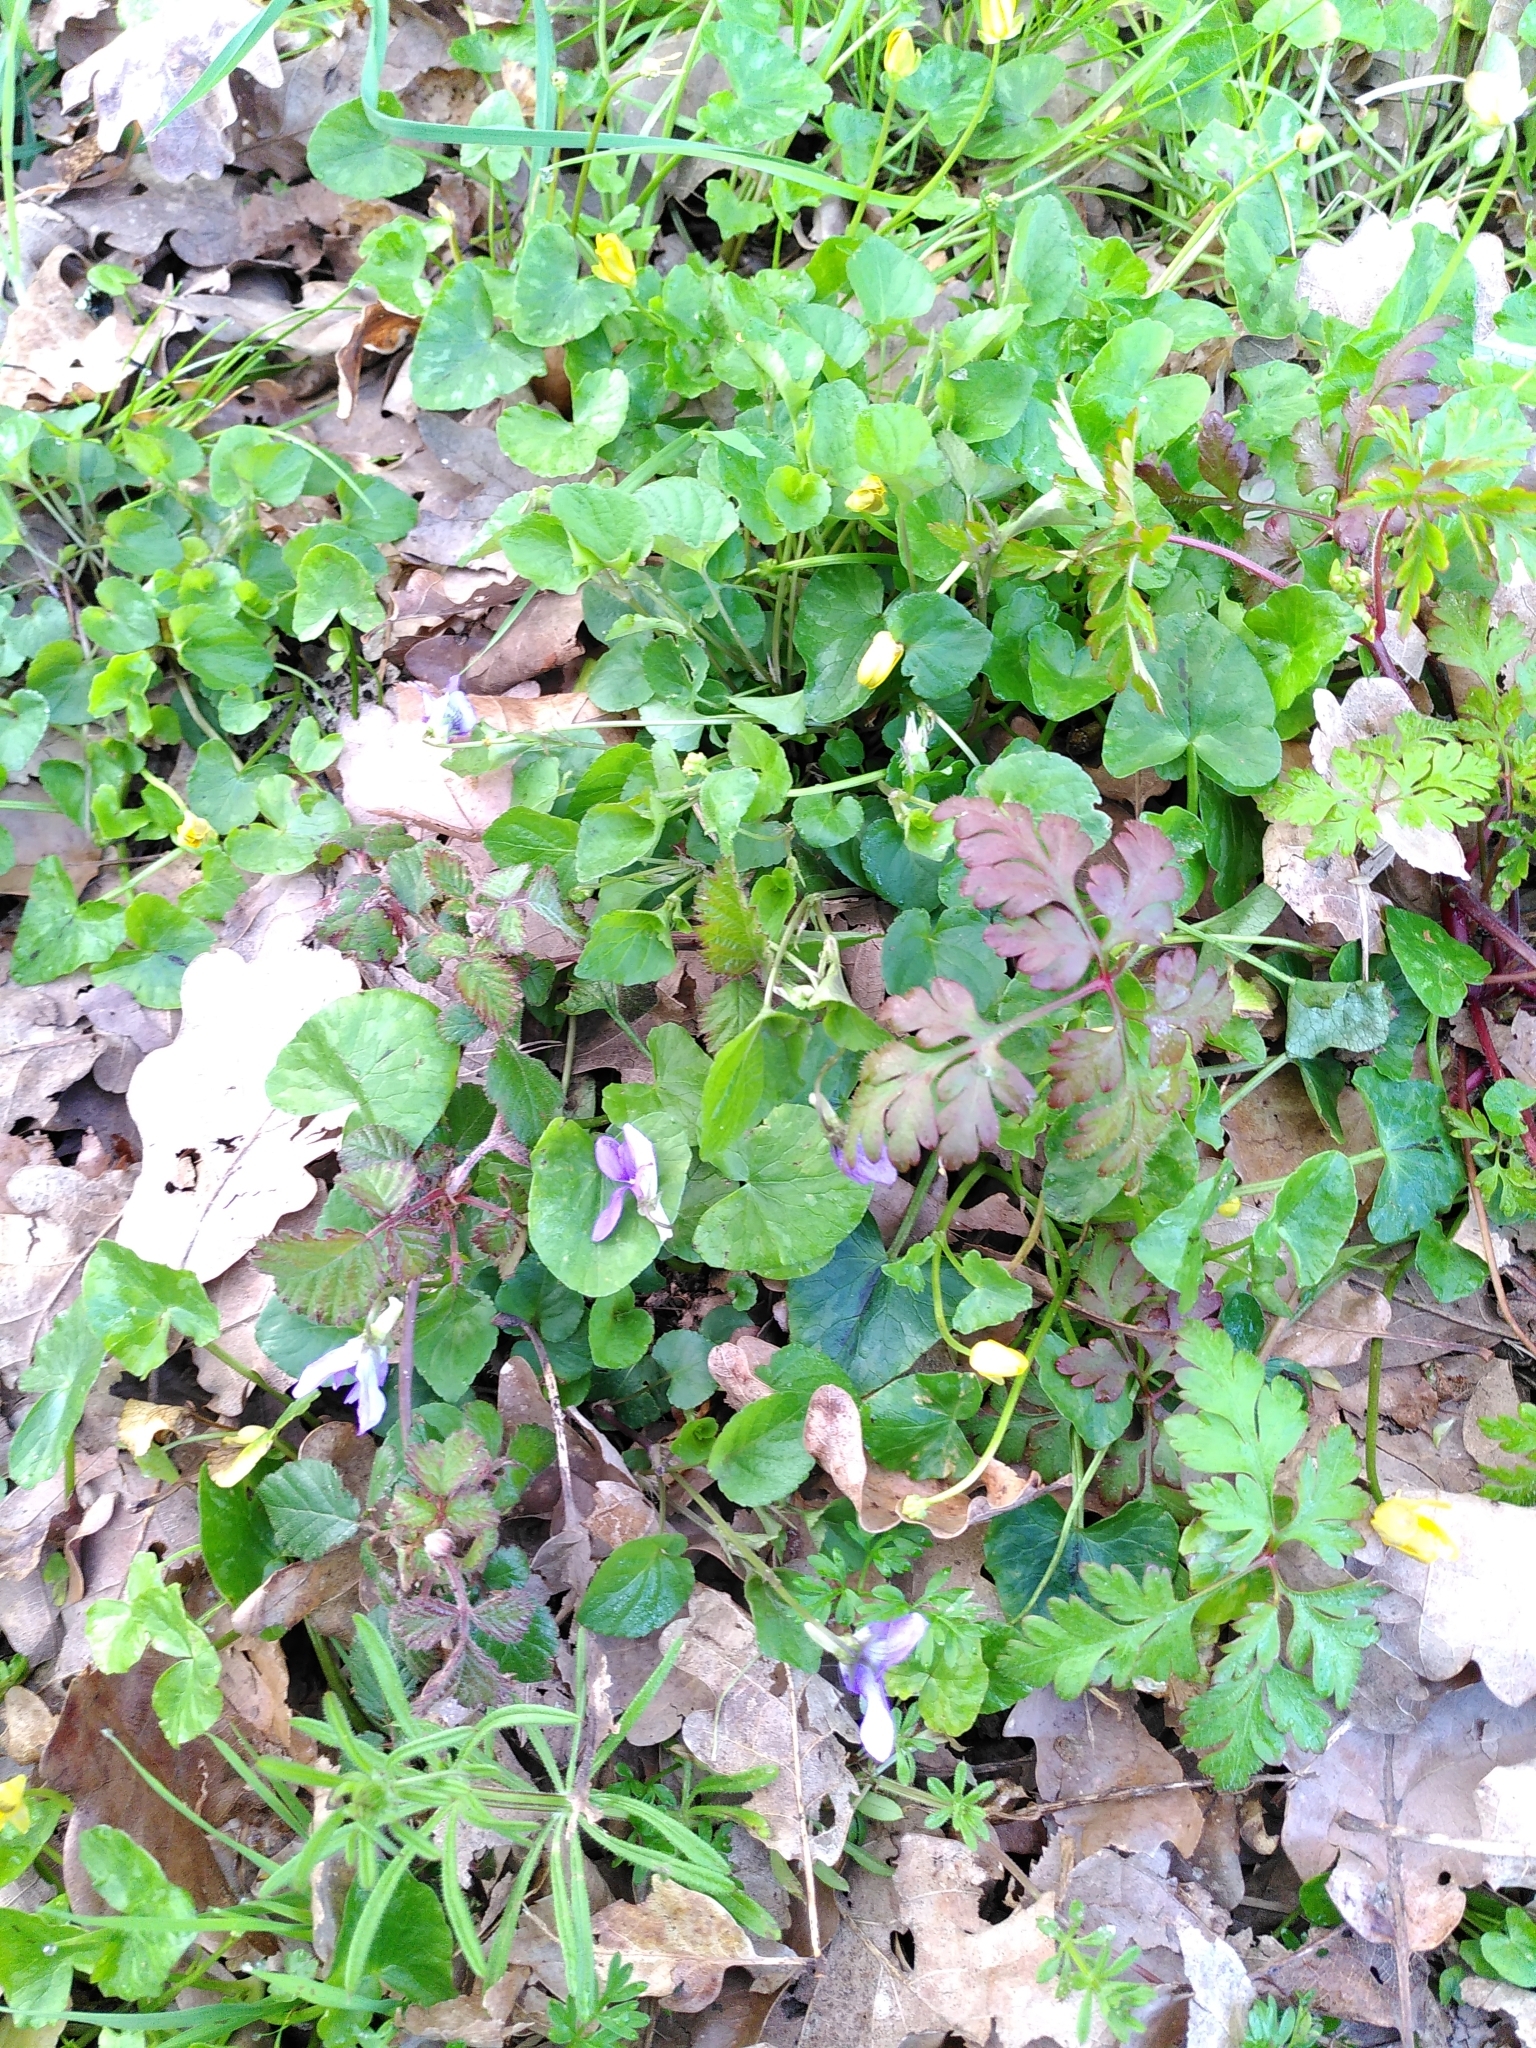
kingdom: Plantae
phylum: Tracheophyta
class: Magnoliopsida
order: Malpighiales
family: Violaceae
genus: Viola
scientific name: Viola riviniana
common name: Common dog-violet
